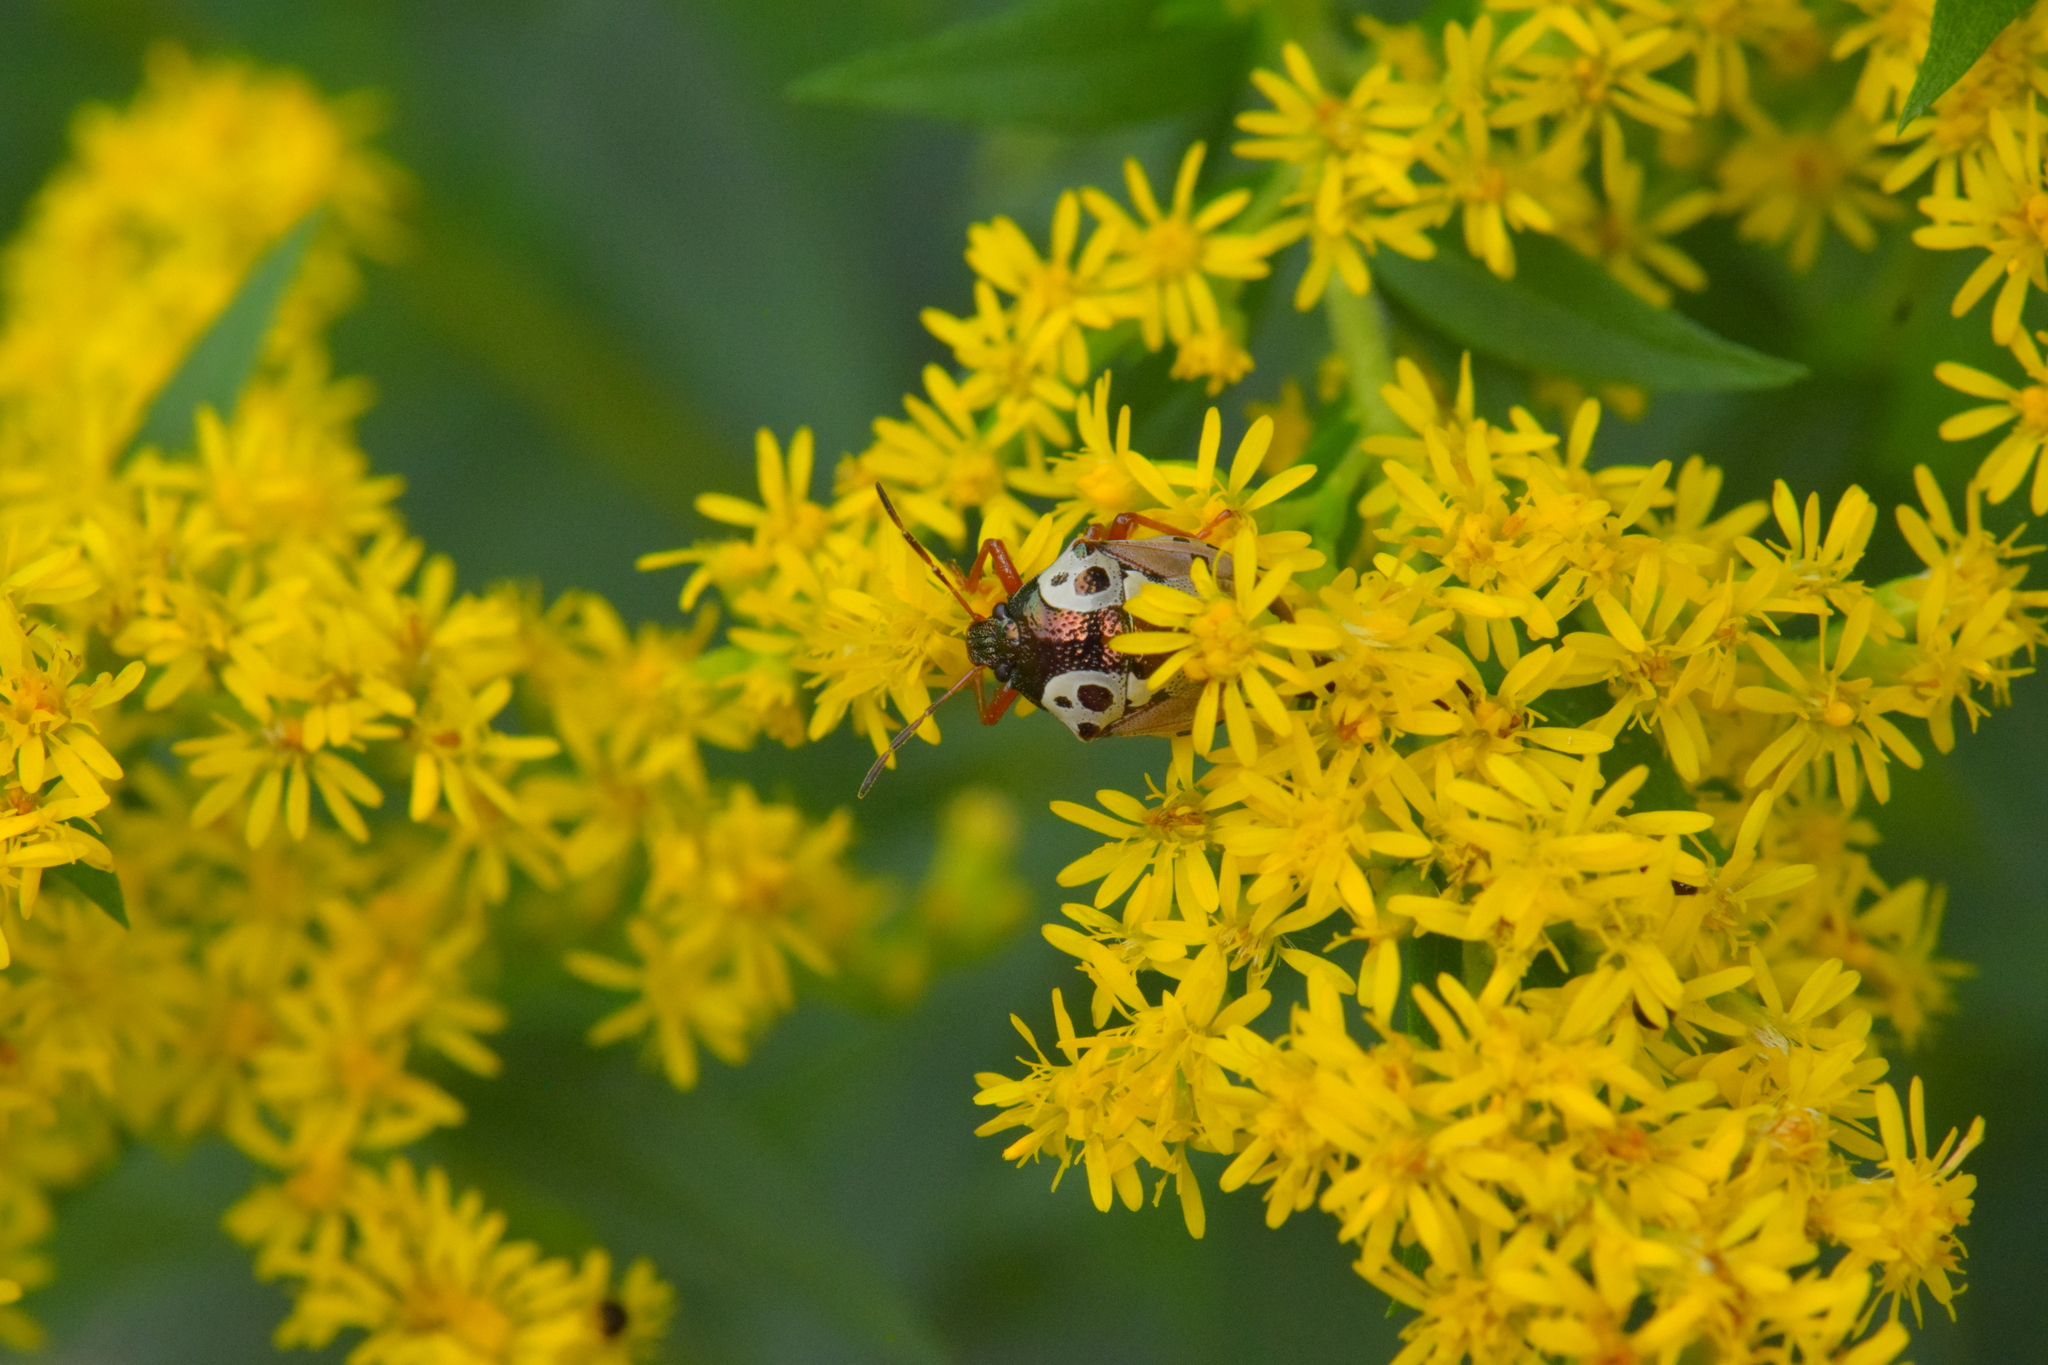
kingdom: Animalia
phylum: Arthropoda
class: Insecta
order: Hemiptera
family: Pentatomidae
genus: Stiretrus
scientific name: Stiretrus anchorago
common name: Anchor stink bug
